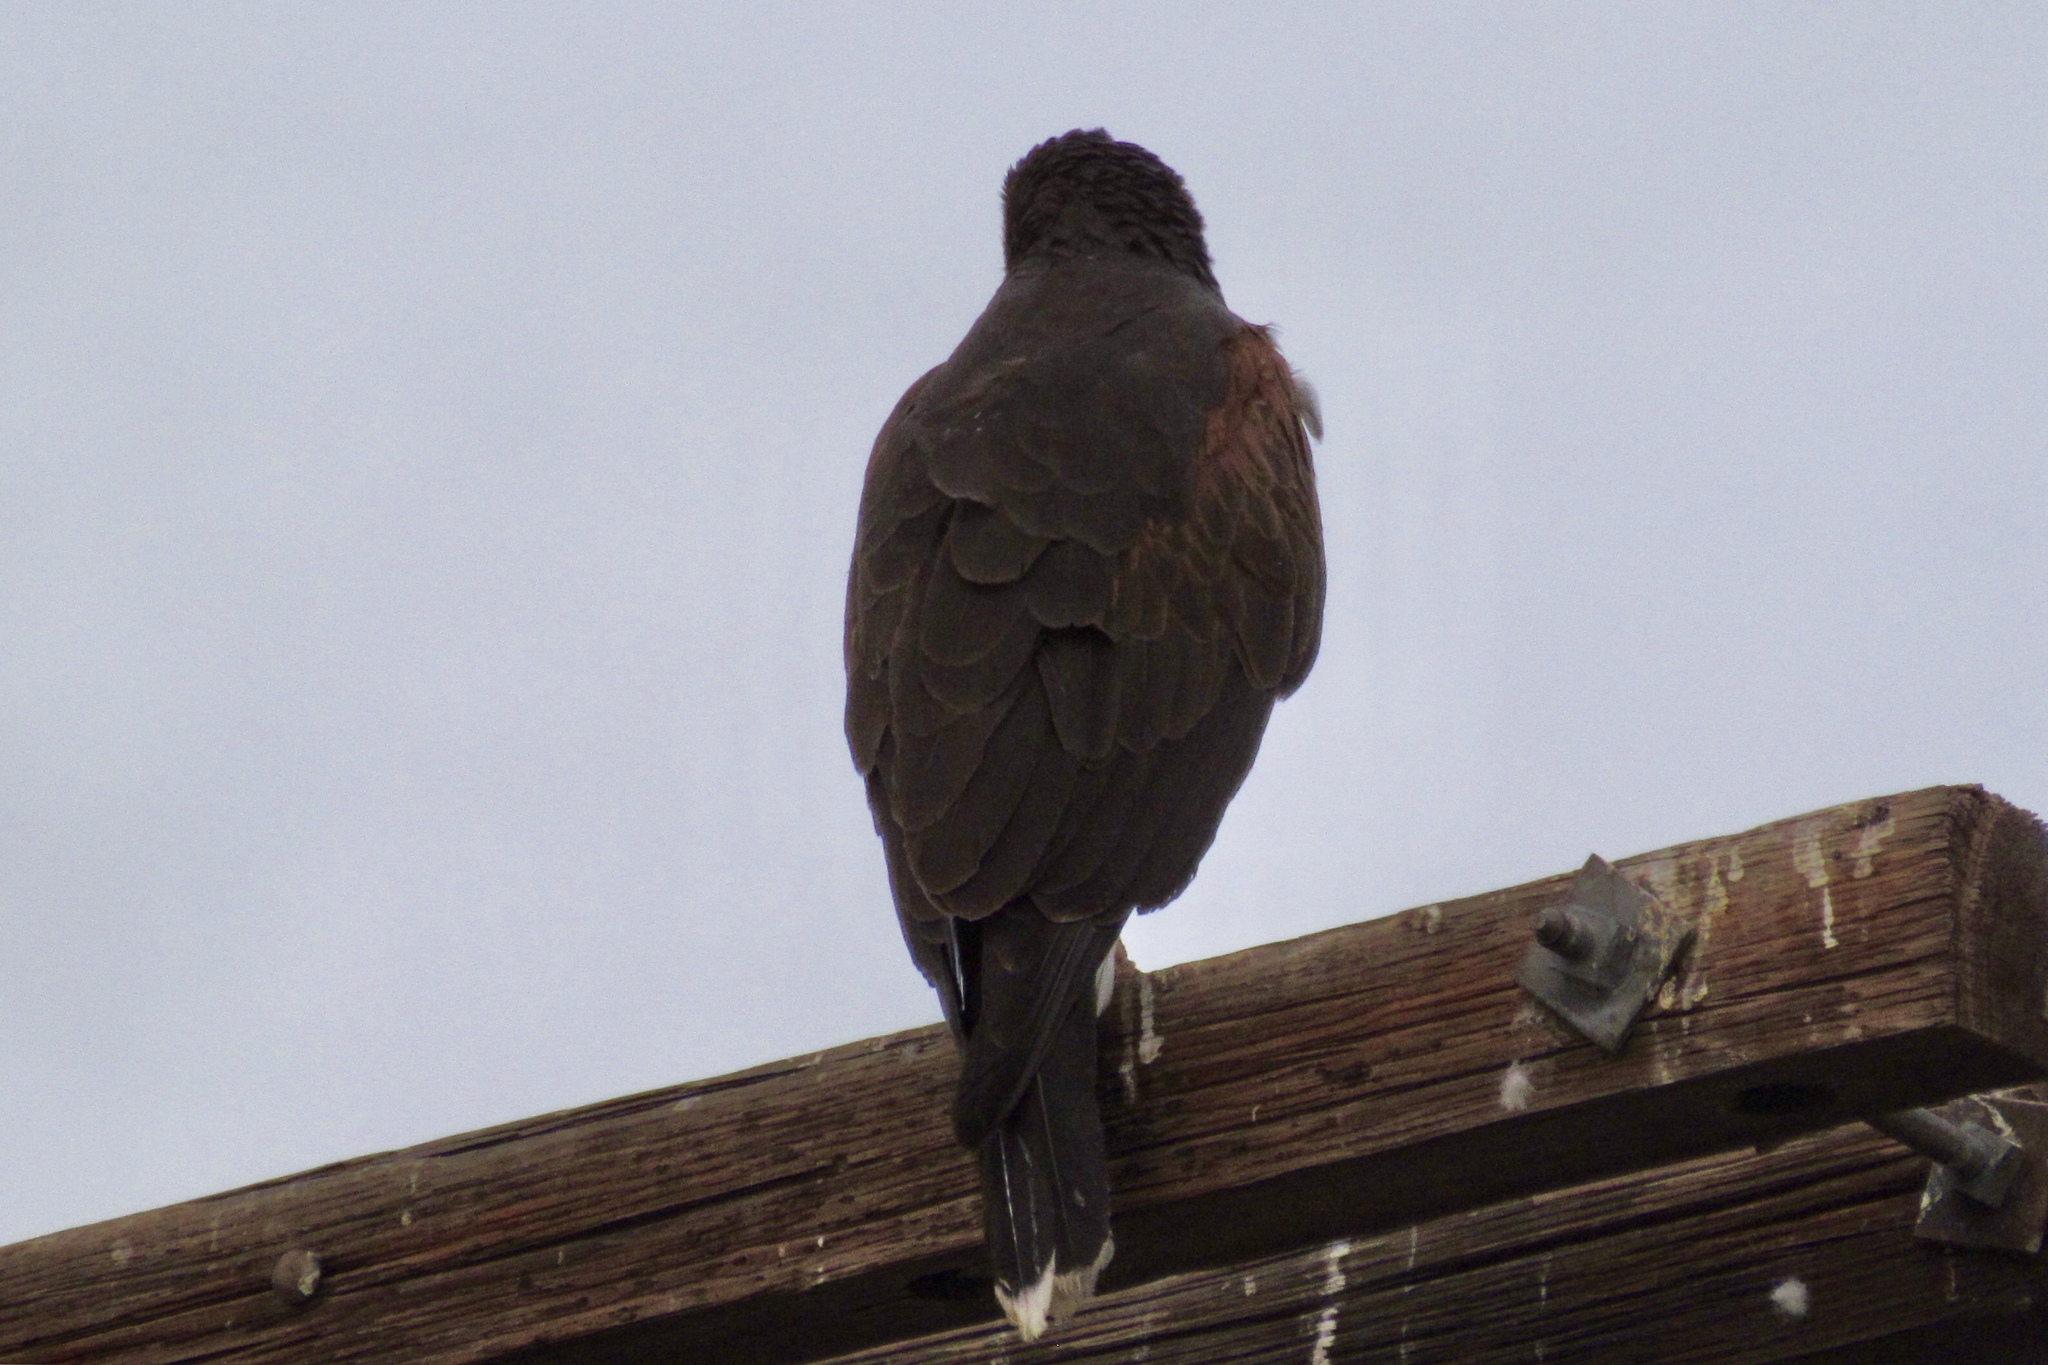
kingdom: Animalia
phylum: Chordata
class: Aves
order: Accipitriformes
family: Accipitridae
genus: Parabuteo
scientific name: Parabuteo unicinctus
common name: Harris's hawk
